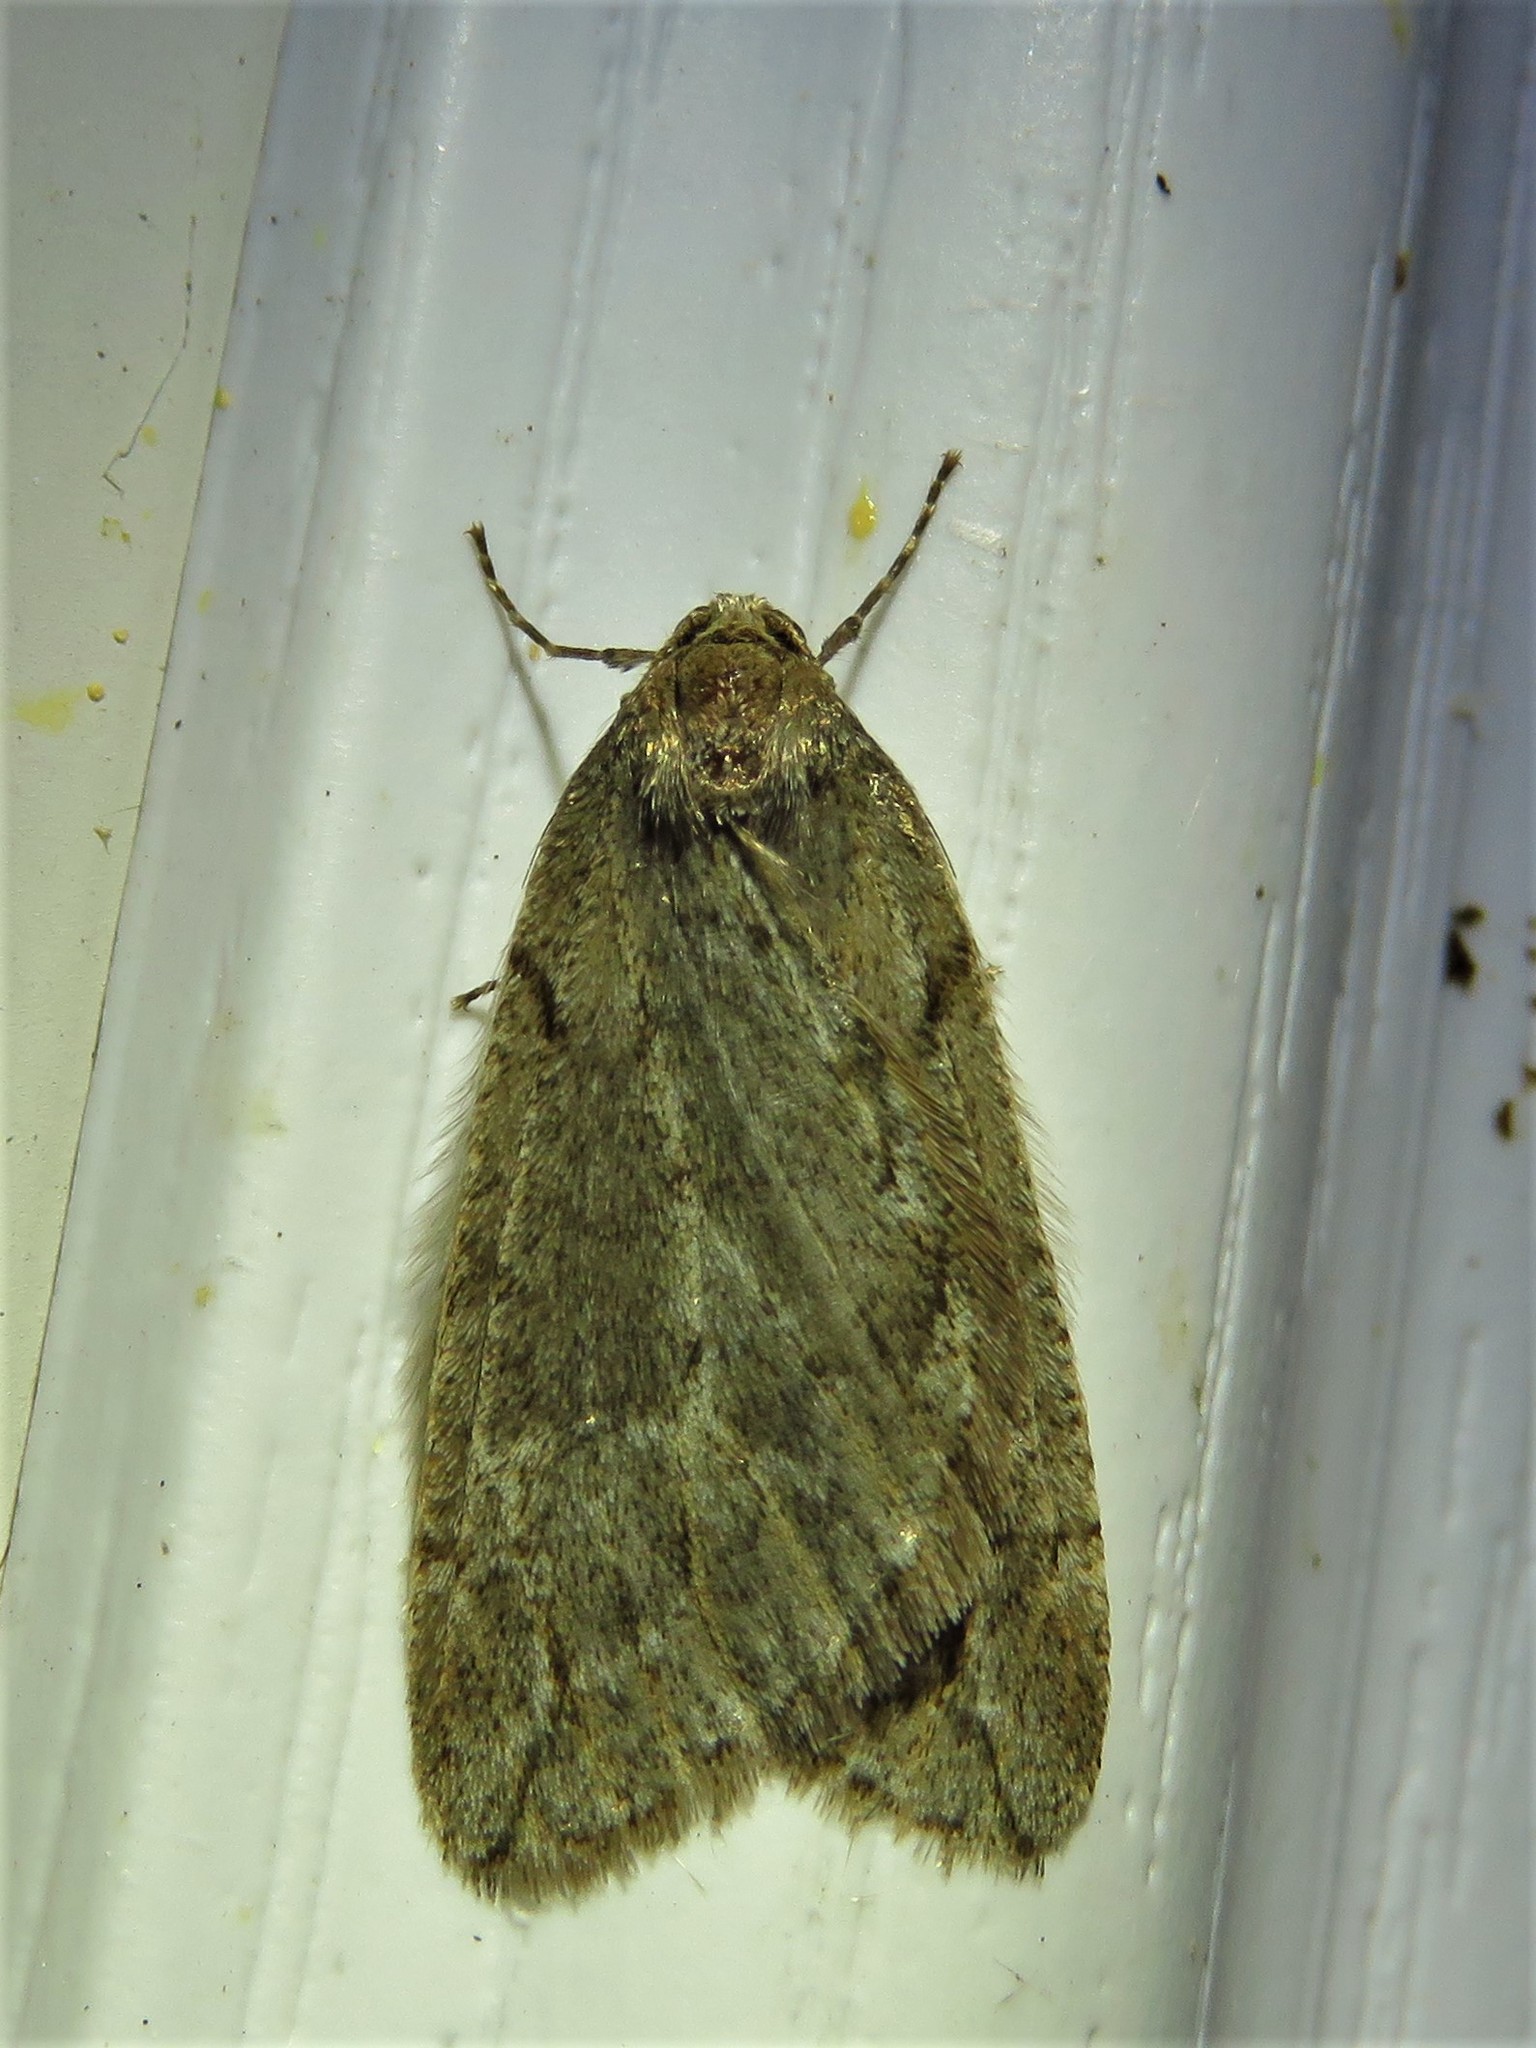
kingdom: Animalia
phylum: Arthropoda
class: Insecta
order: Lepidoptera
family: Geometridae
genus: Paleacrita
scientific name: Paleacrita vernata
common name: Spring cankerworm
